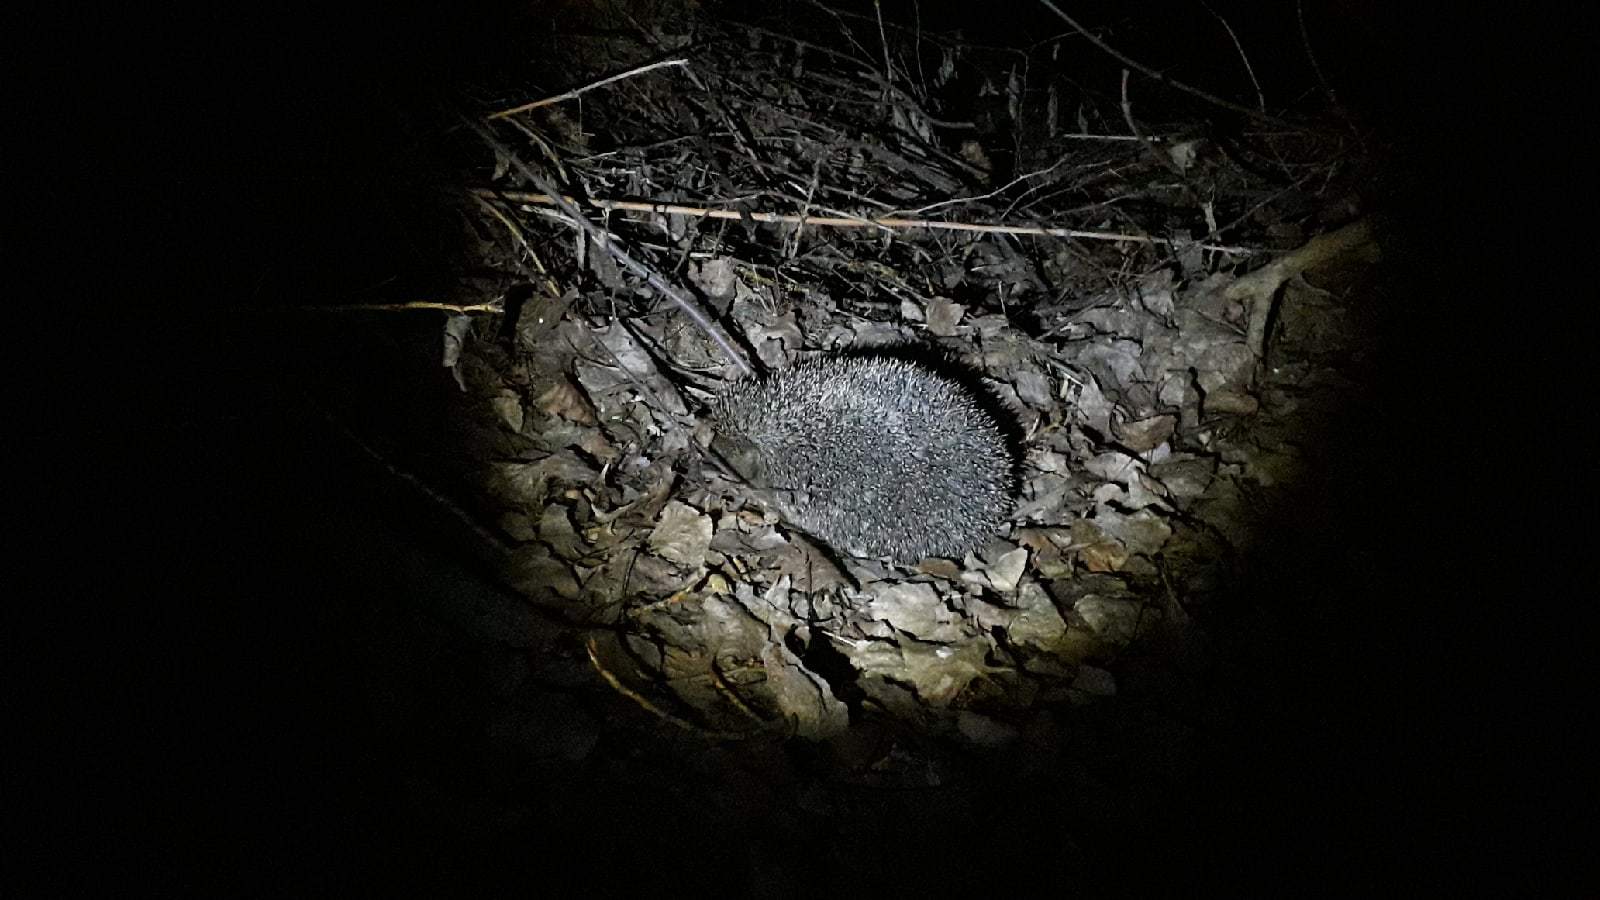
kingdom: Animalia
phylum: Chordata
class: Mammalia
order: Erinaceomorpha
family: Erinaceidae
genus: Erinaceus
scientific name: Erinaceus roumanicus
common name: Northern white-breasted hedgehog
